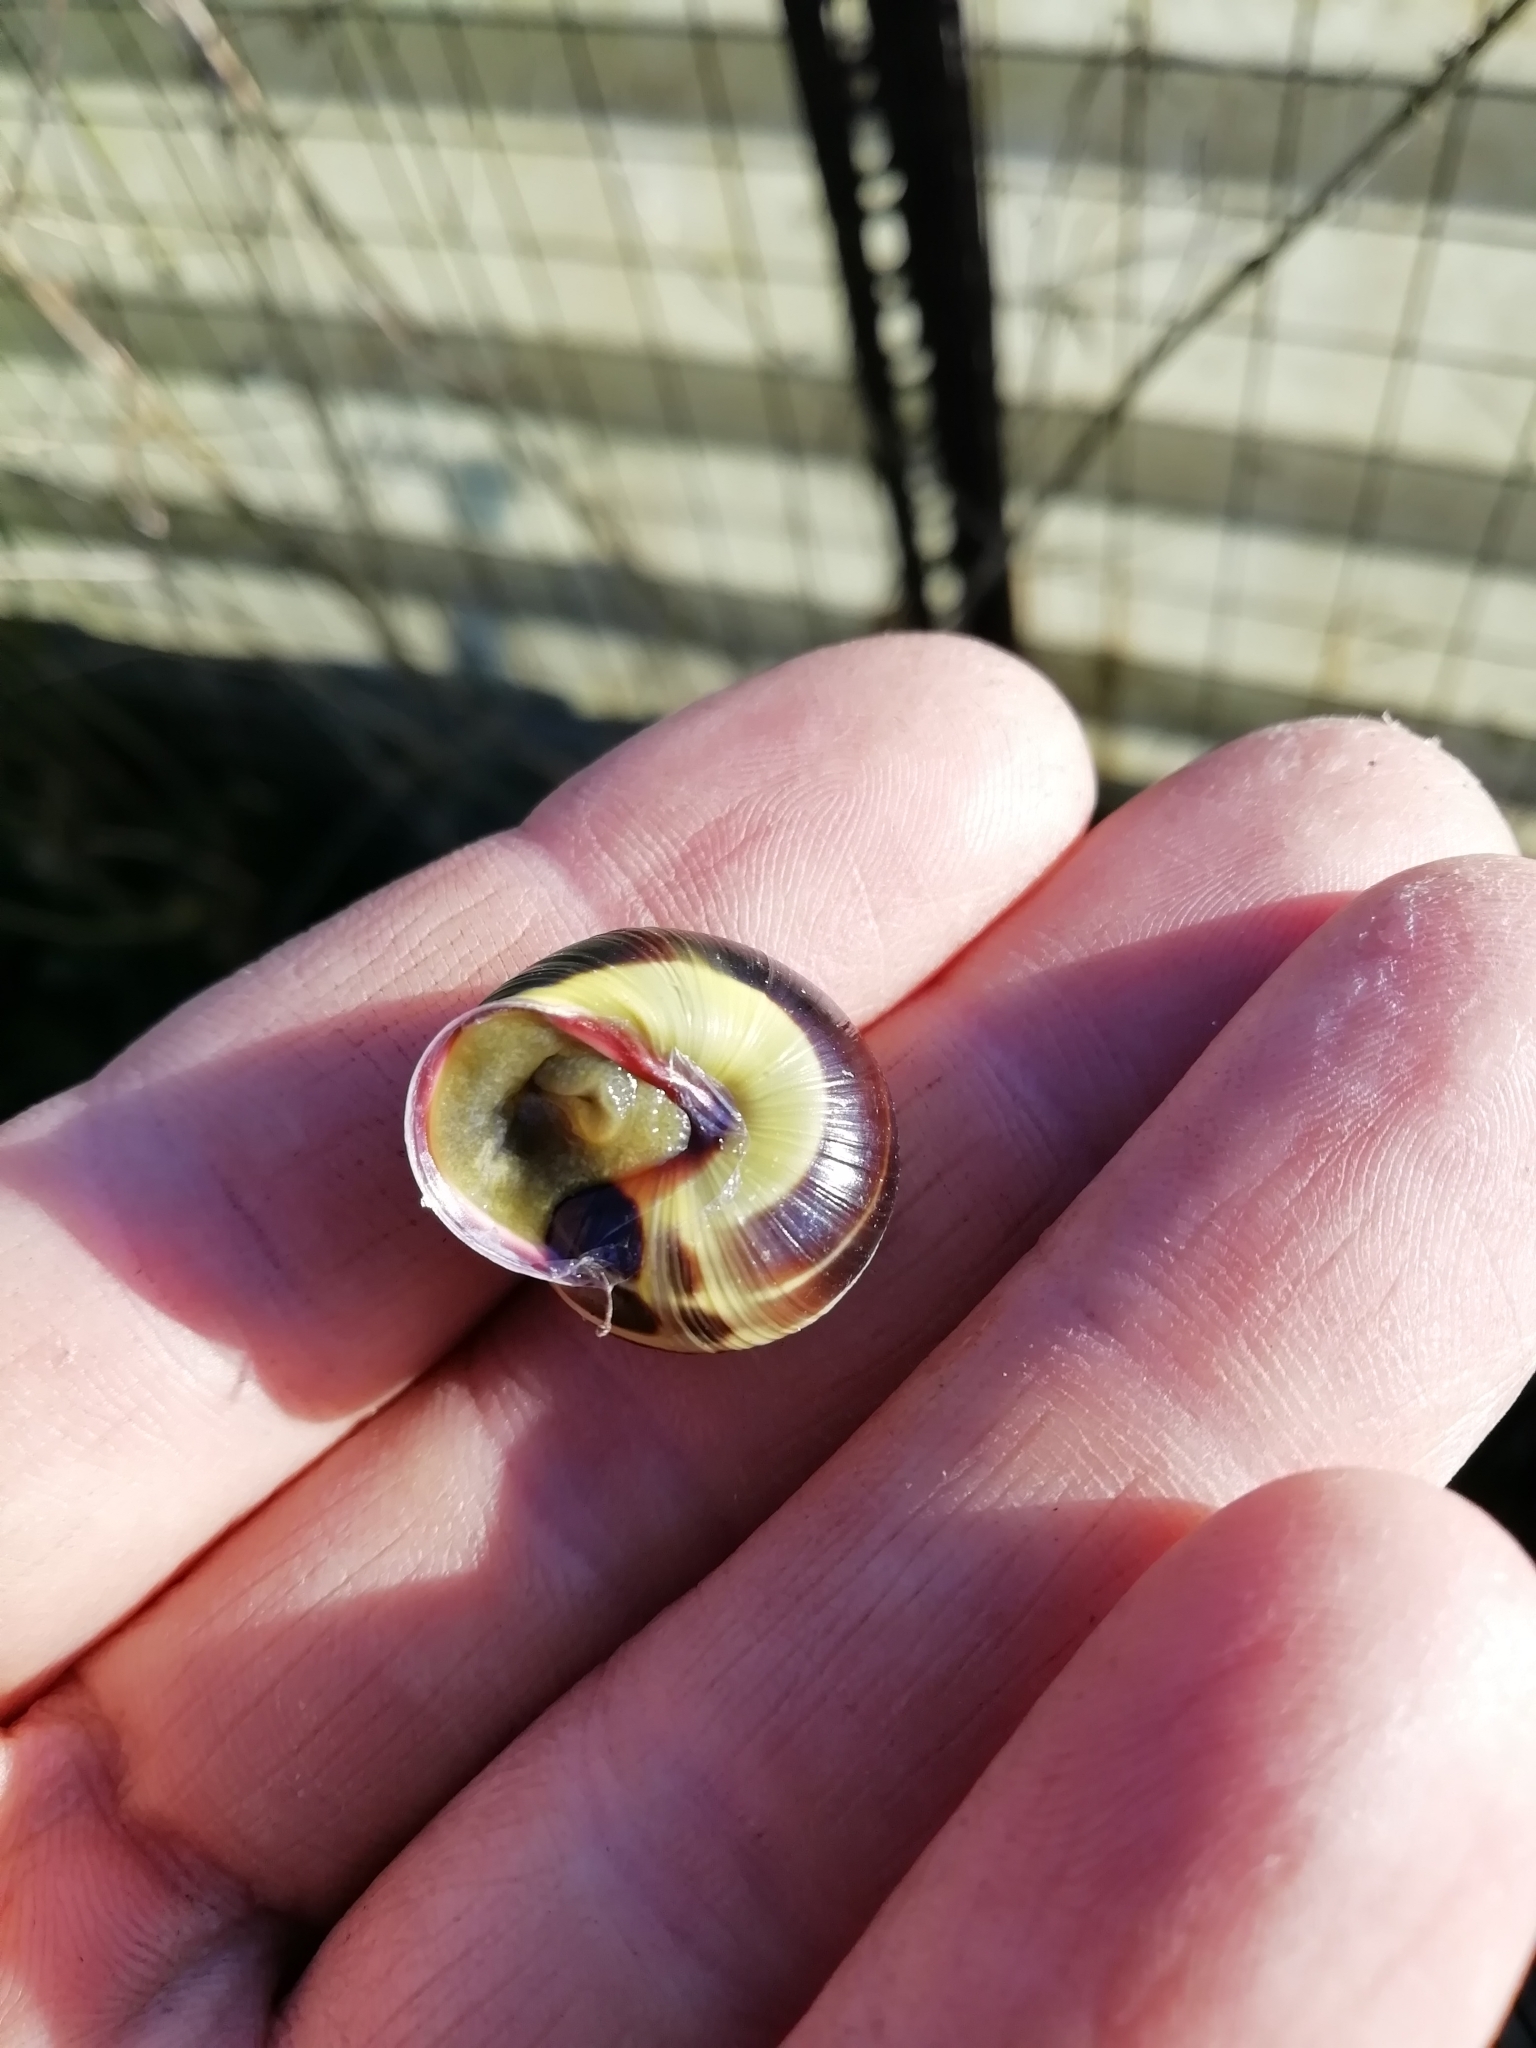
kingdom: Animalia
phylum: Mollusca
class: Gastropoda
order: Stylommatophora
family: Helicidae
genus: Cepaea
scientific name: Cepaea nemoralis
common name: Grovesnail
